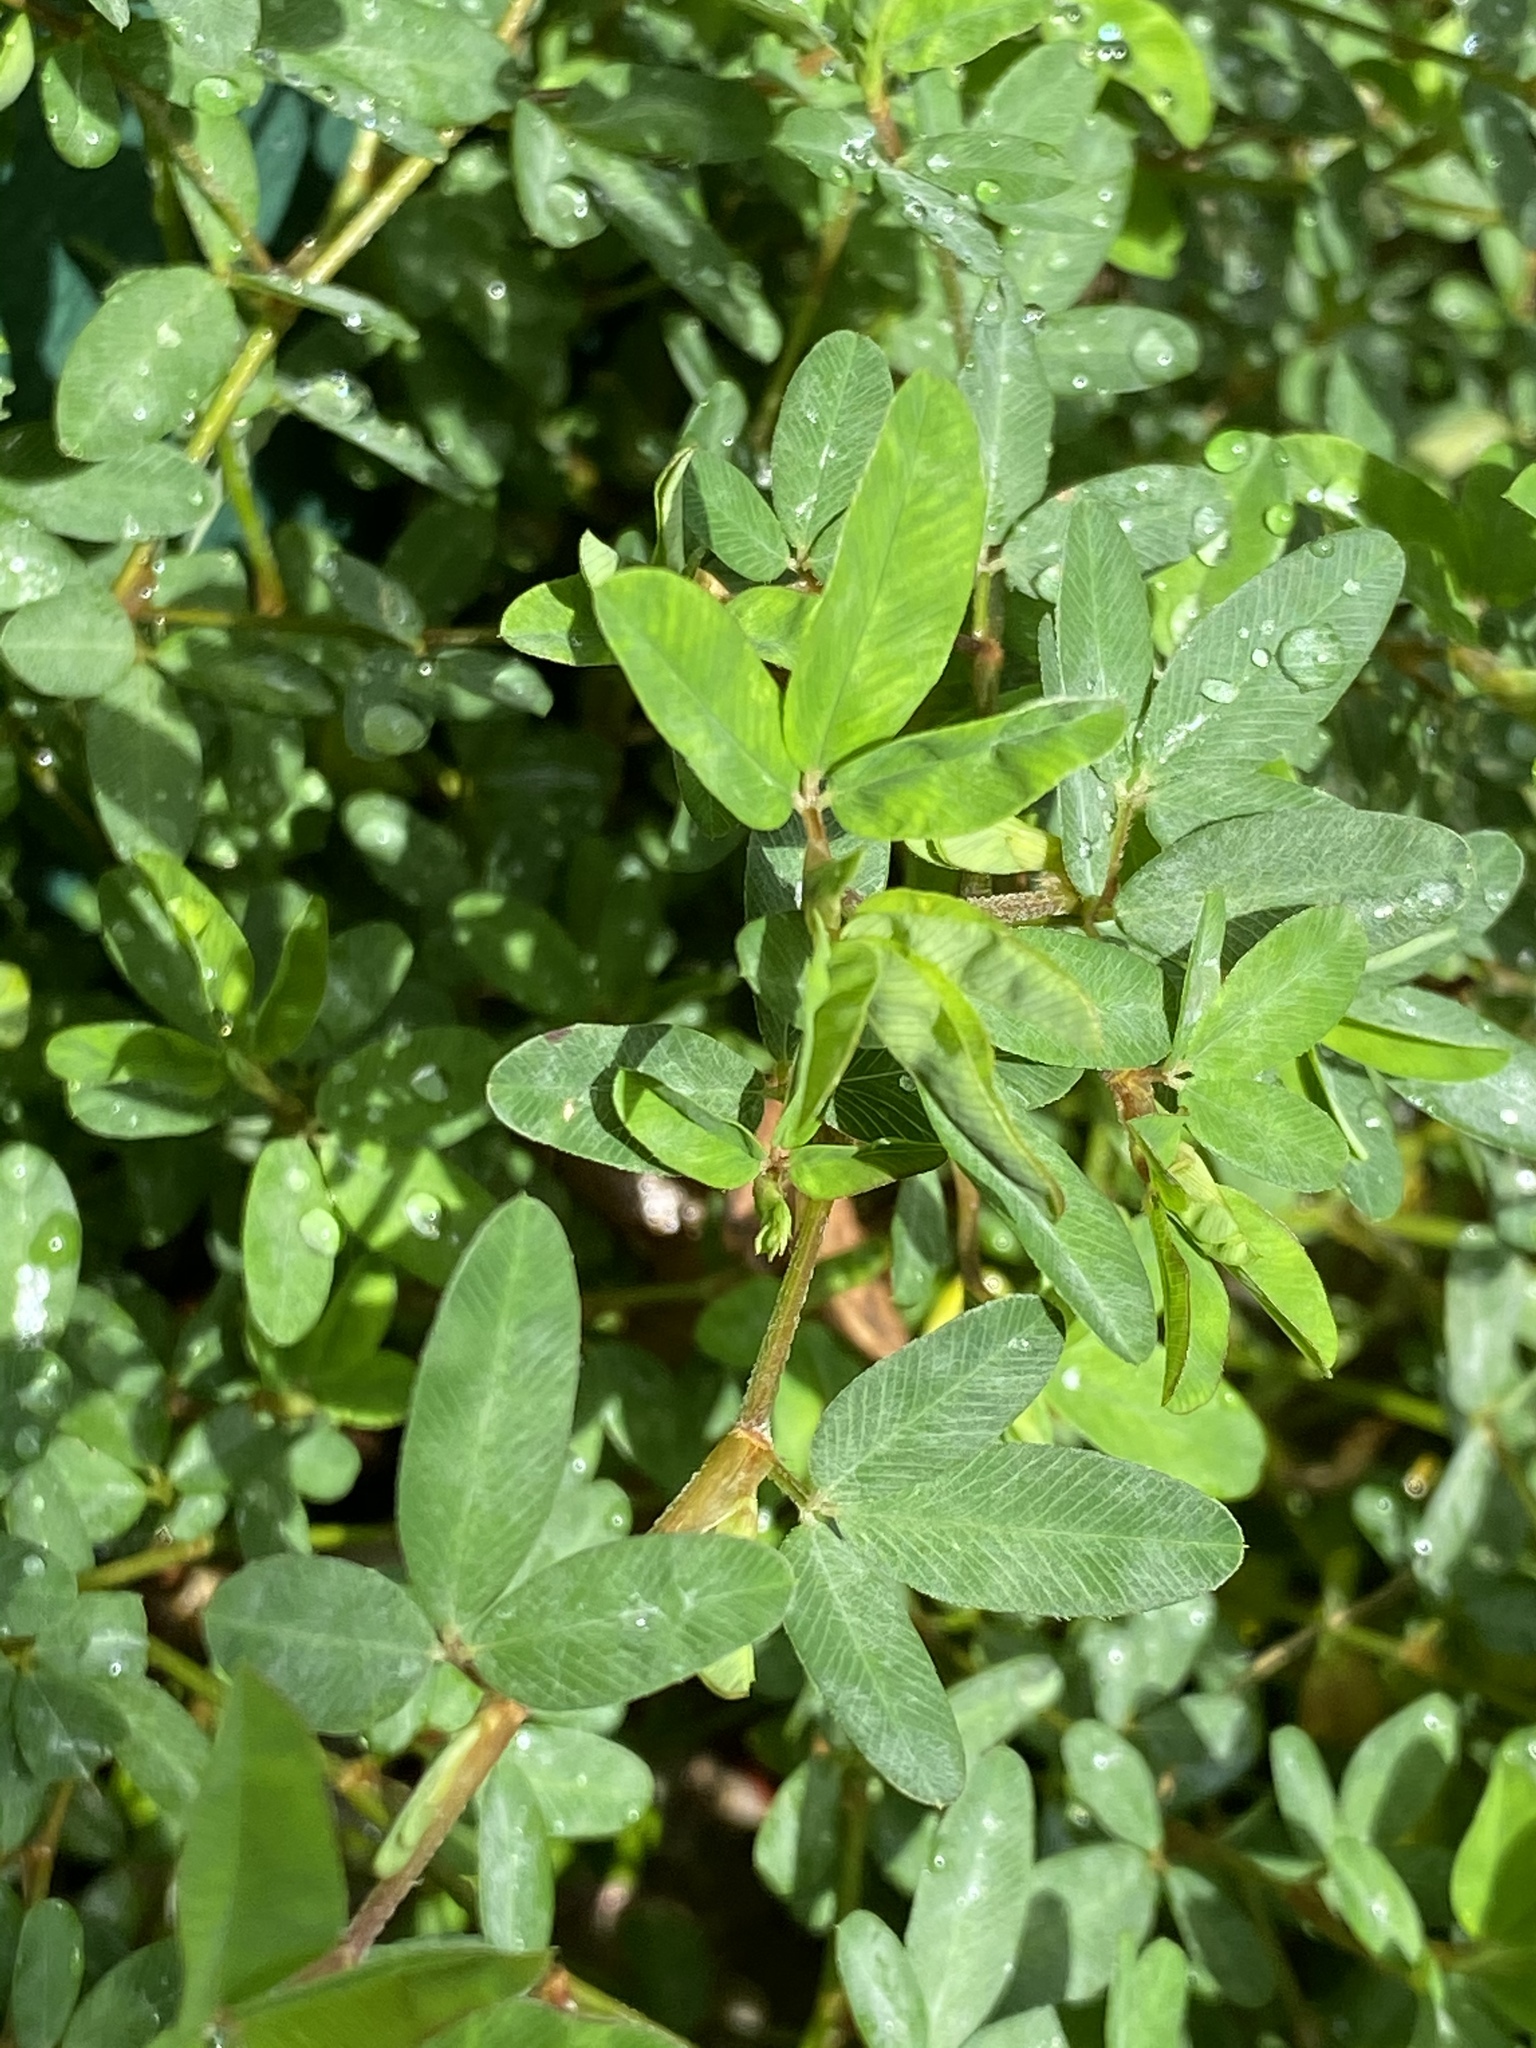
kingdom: Plantae
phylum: Tracheophyta
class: Magnoliopsida
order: Fabales
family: Fabaceae
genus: Kummerowia
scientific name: Kummerowia striata
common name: Japanese clover
